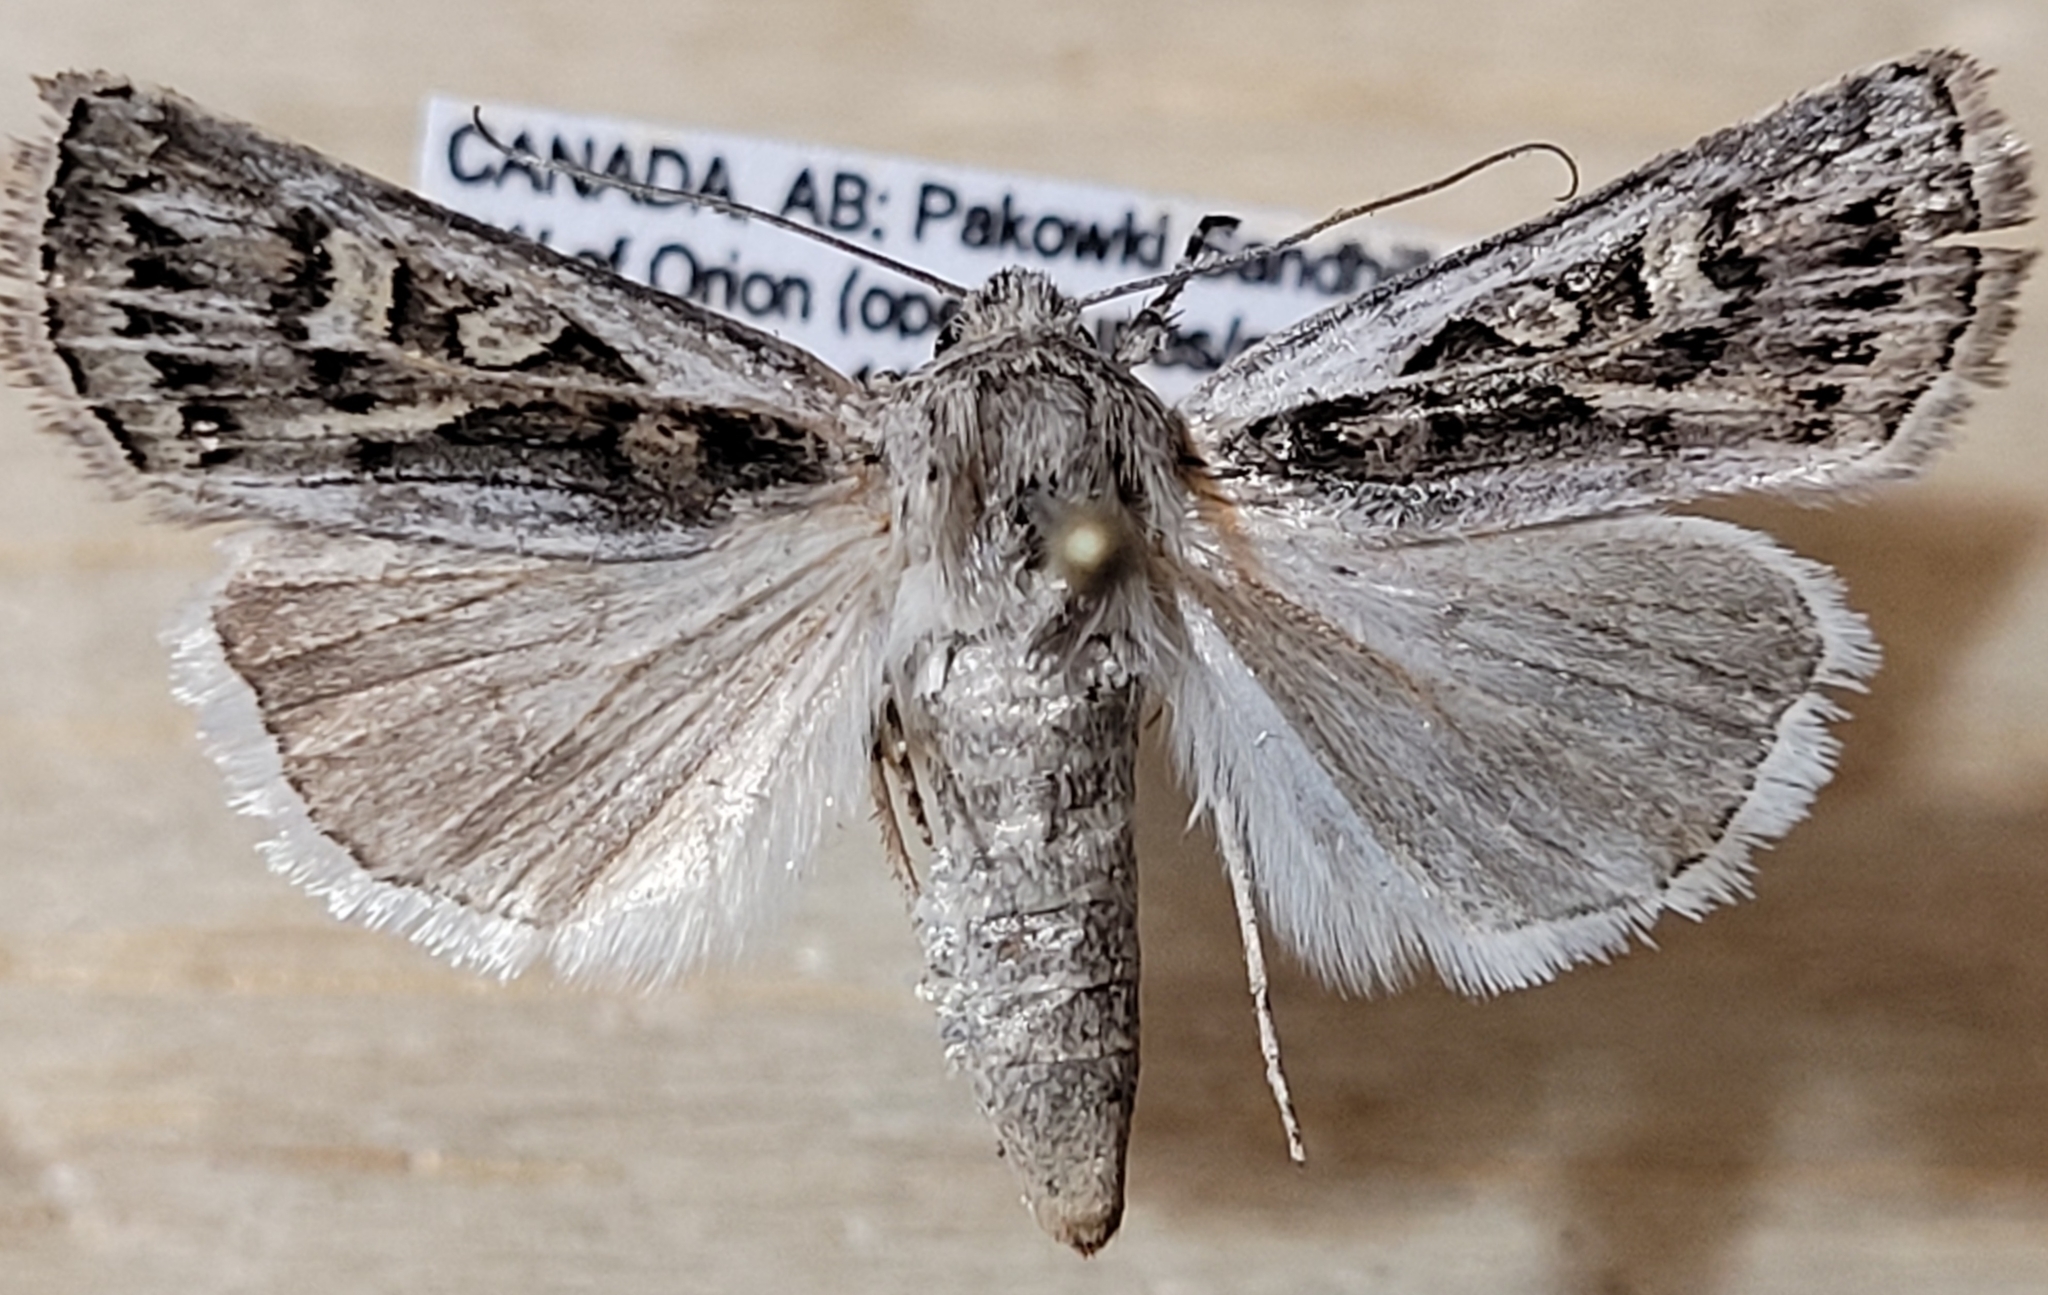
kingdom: Animalia
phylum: Arthropoda
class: Insecta
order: Lepidoptera
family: Noctuidae
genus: Euxoa
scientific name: Euxoa quadridentata
